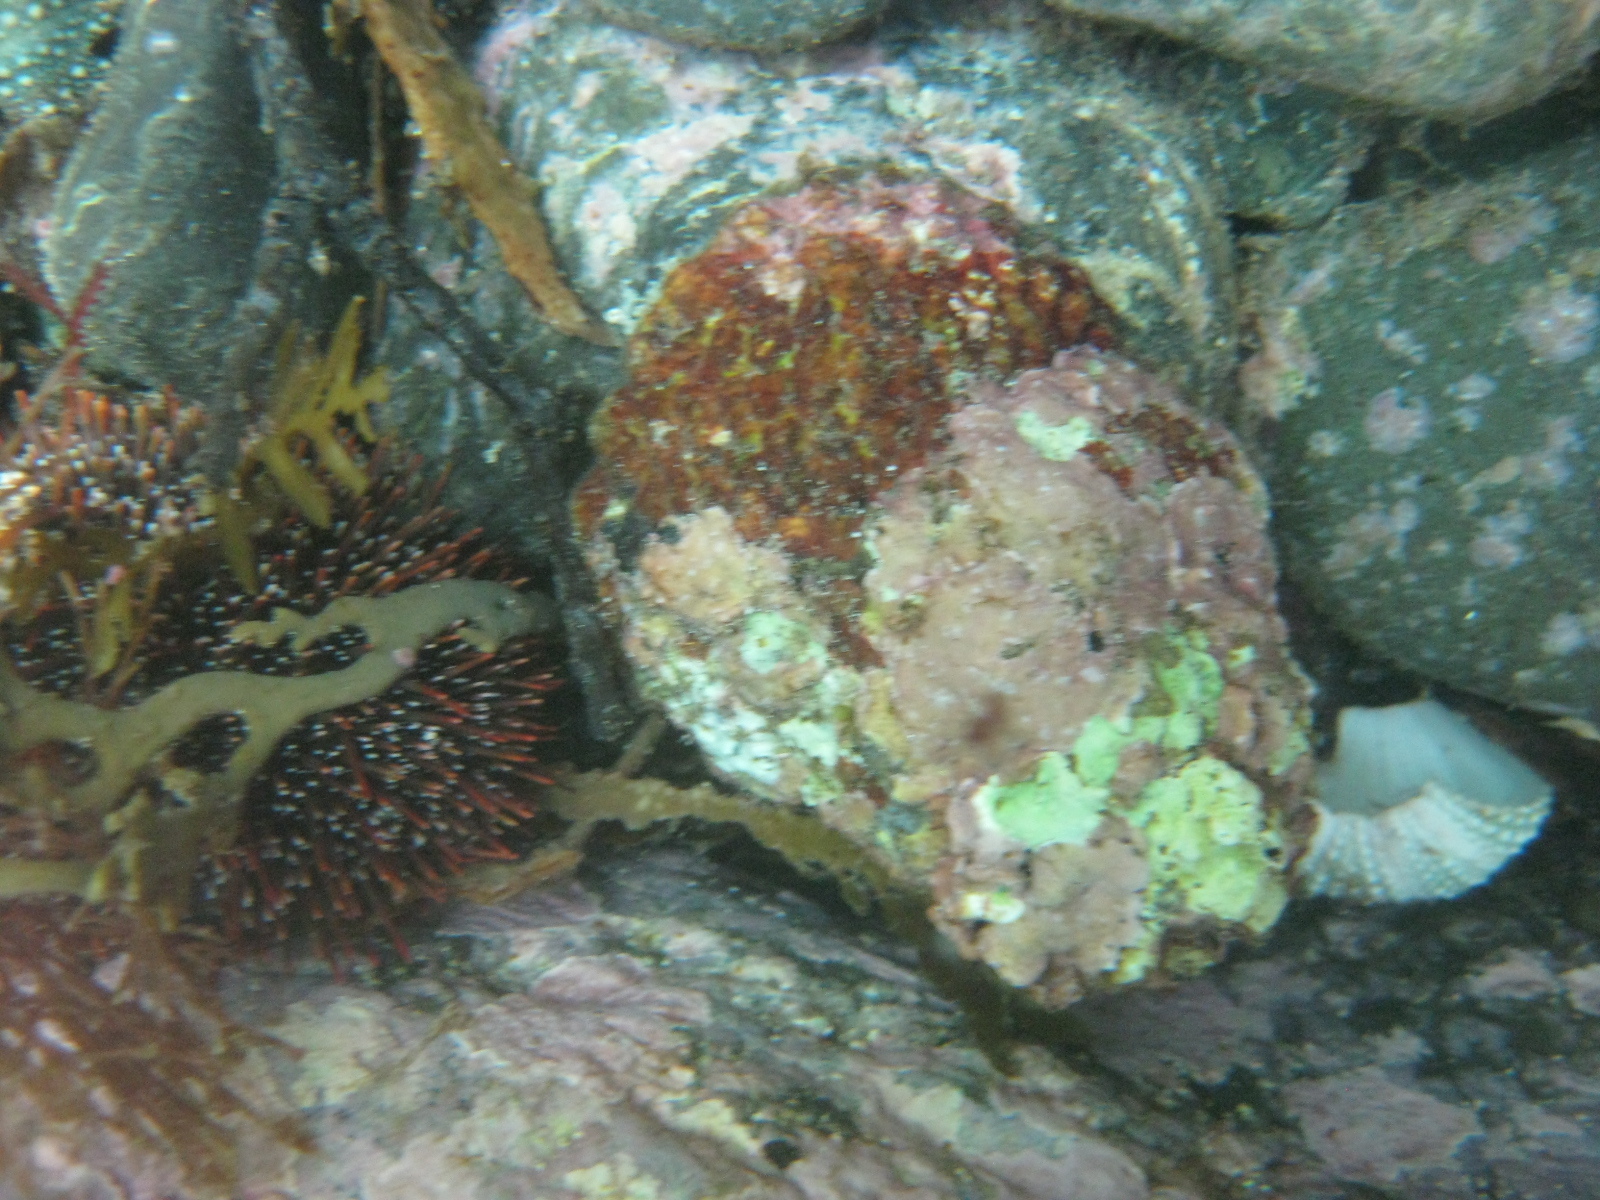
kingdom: Animalia
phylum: Mollusca
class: Gastropoda
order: Trochida
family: Turbinidae
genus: Cookia
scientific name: Cookia sulcata
